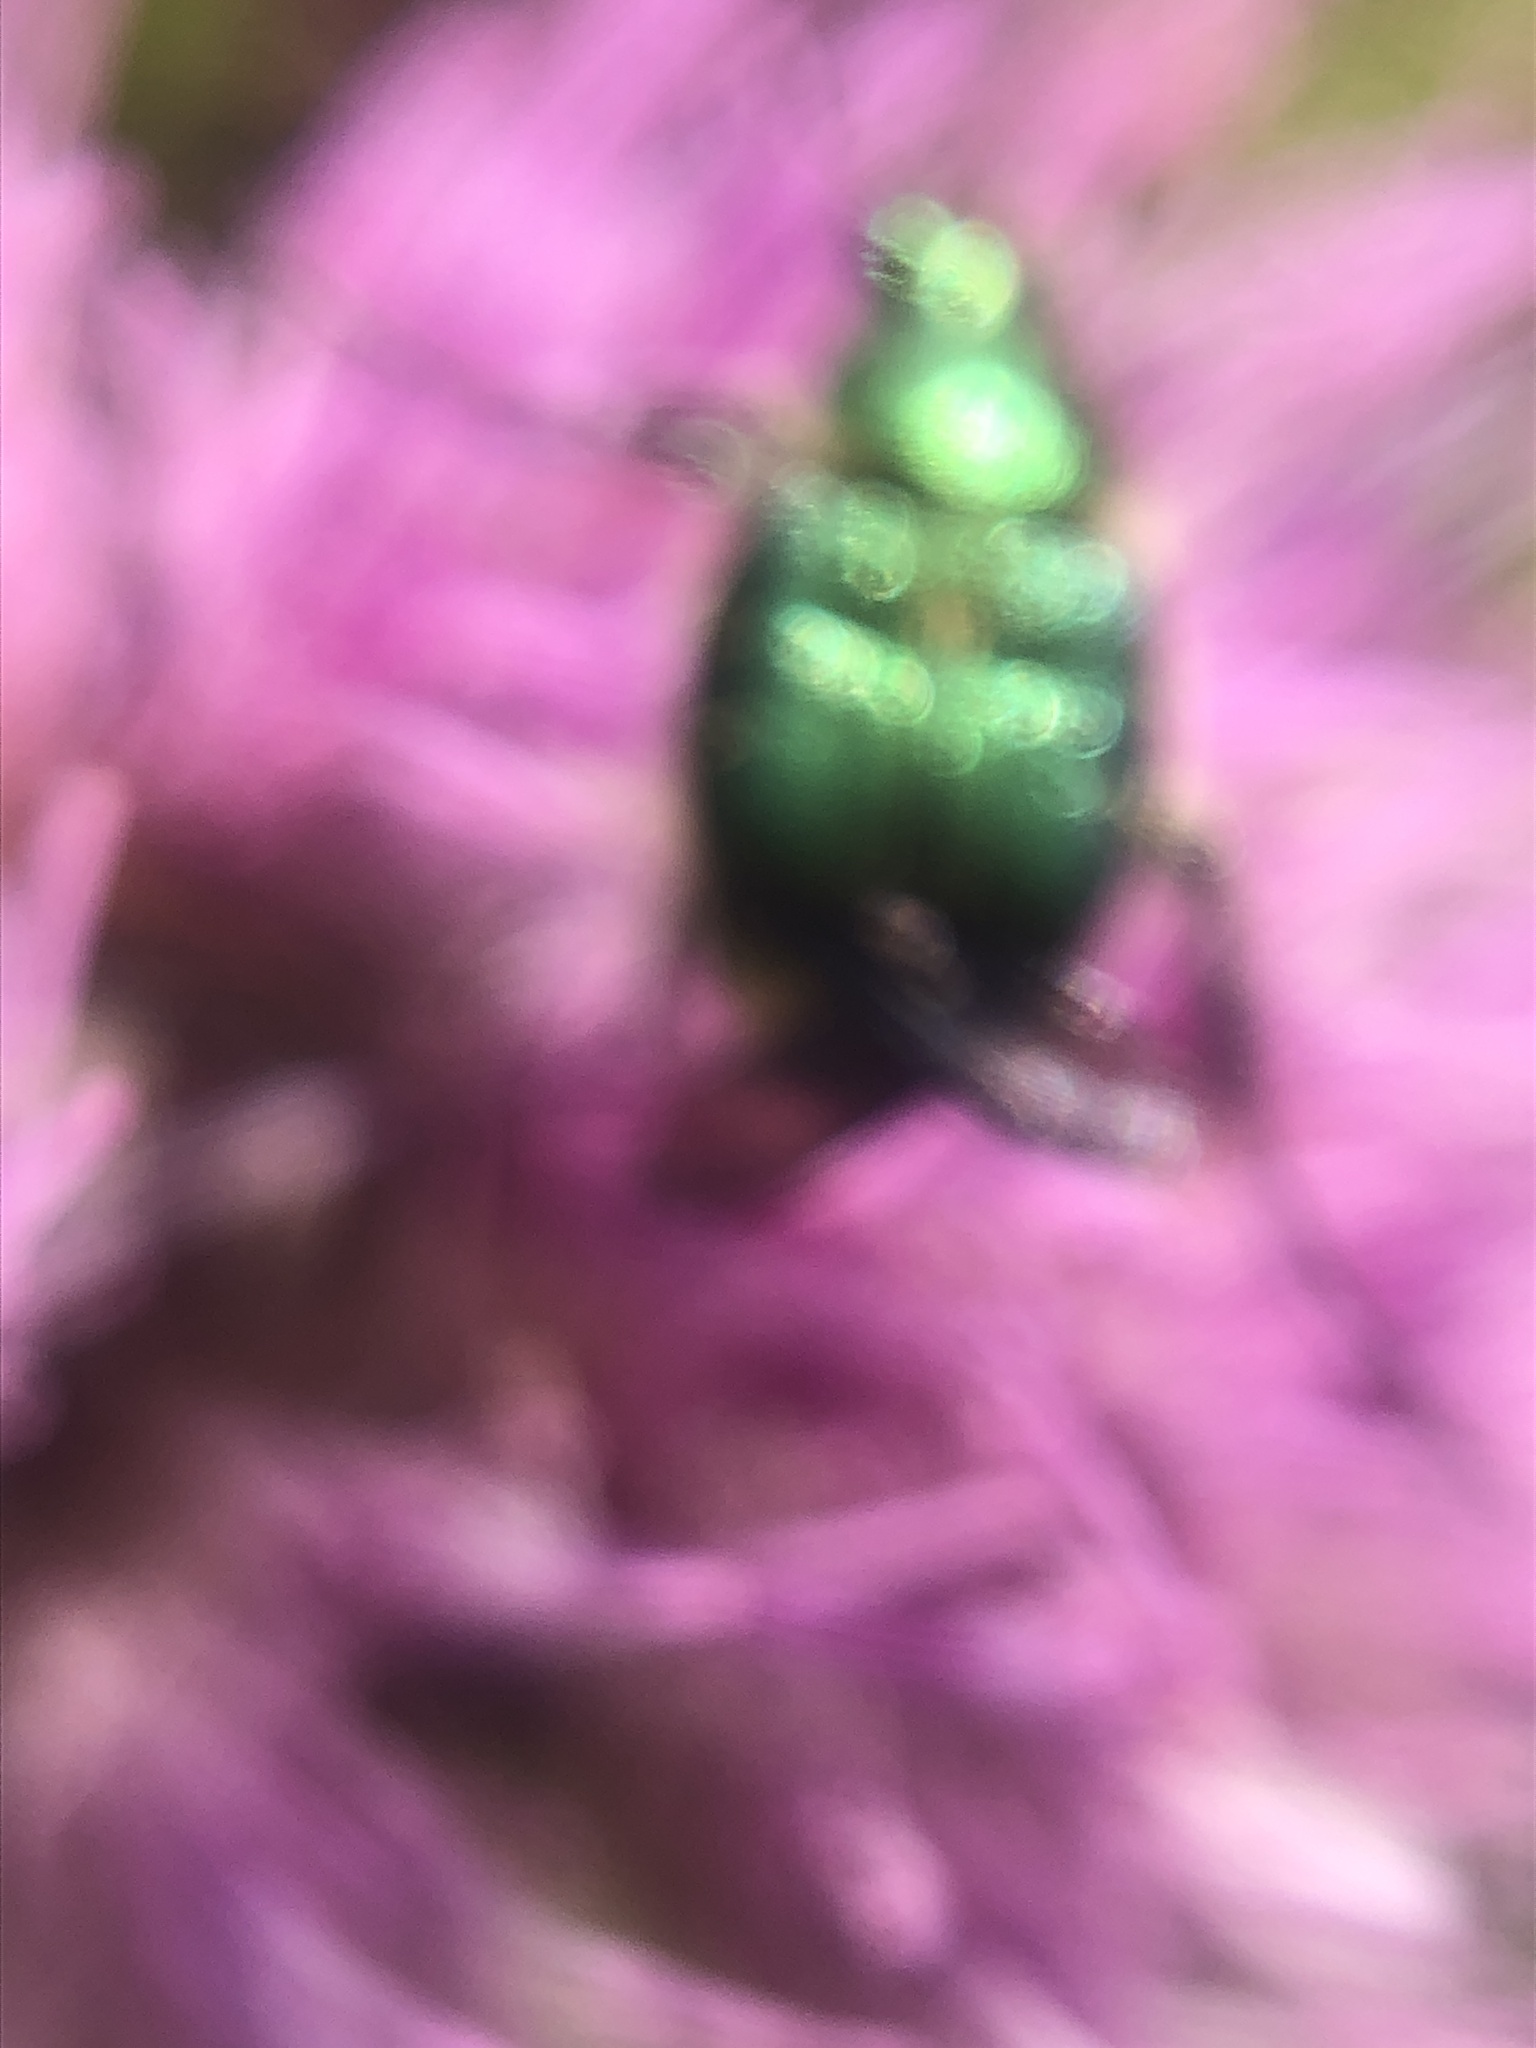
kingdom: Animalia
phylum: Arthropoda
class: Insecta
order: Coleoptera
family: Scarabaeidae
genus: Trichiotinus
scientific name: Trichiotinus lunulatus
